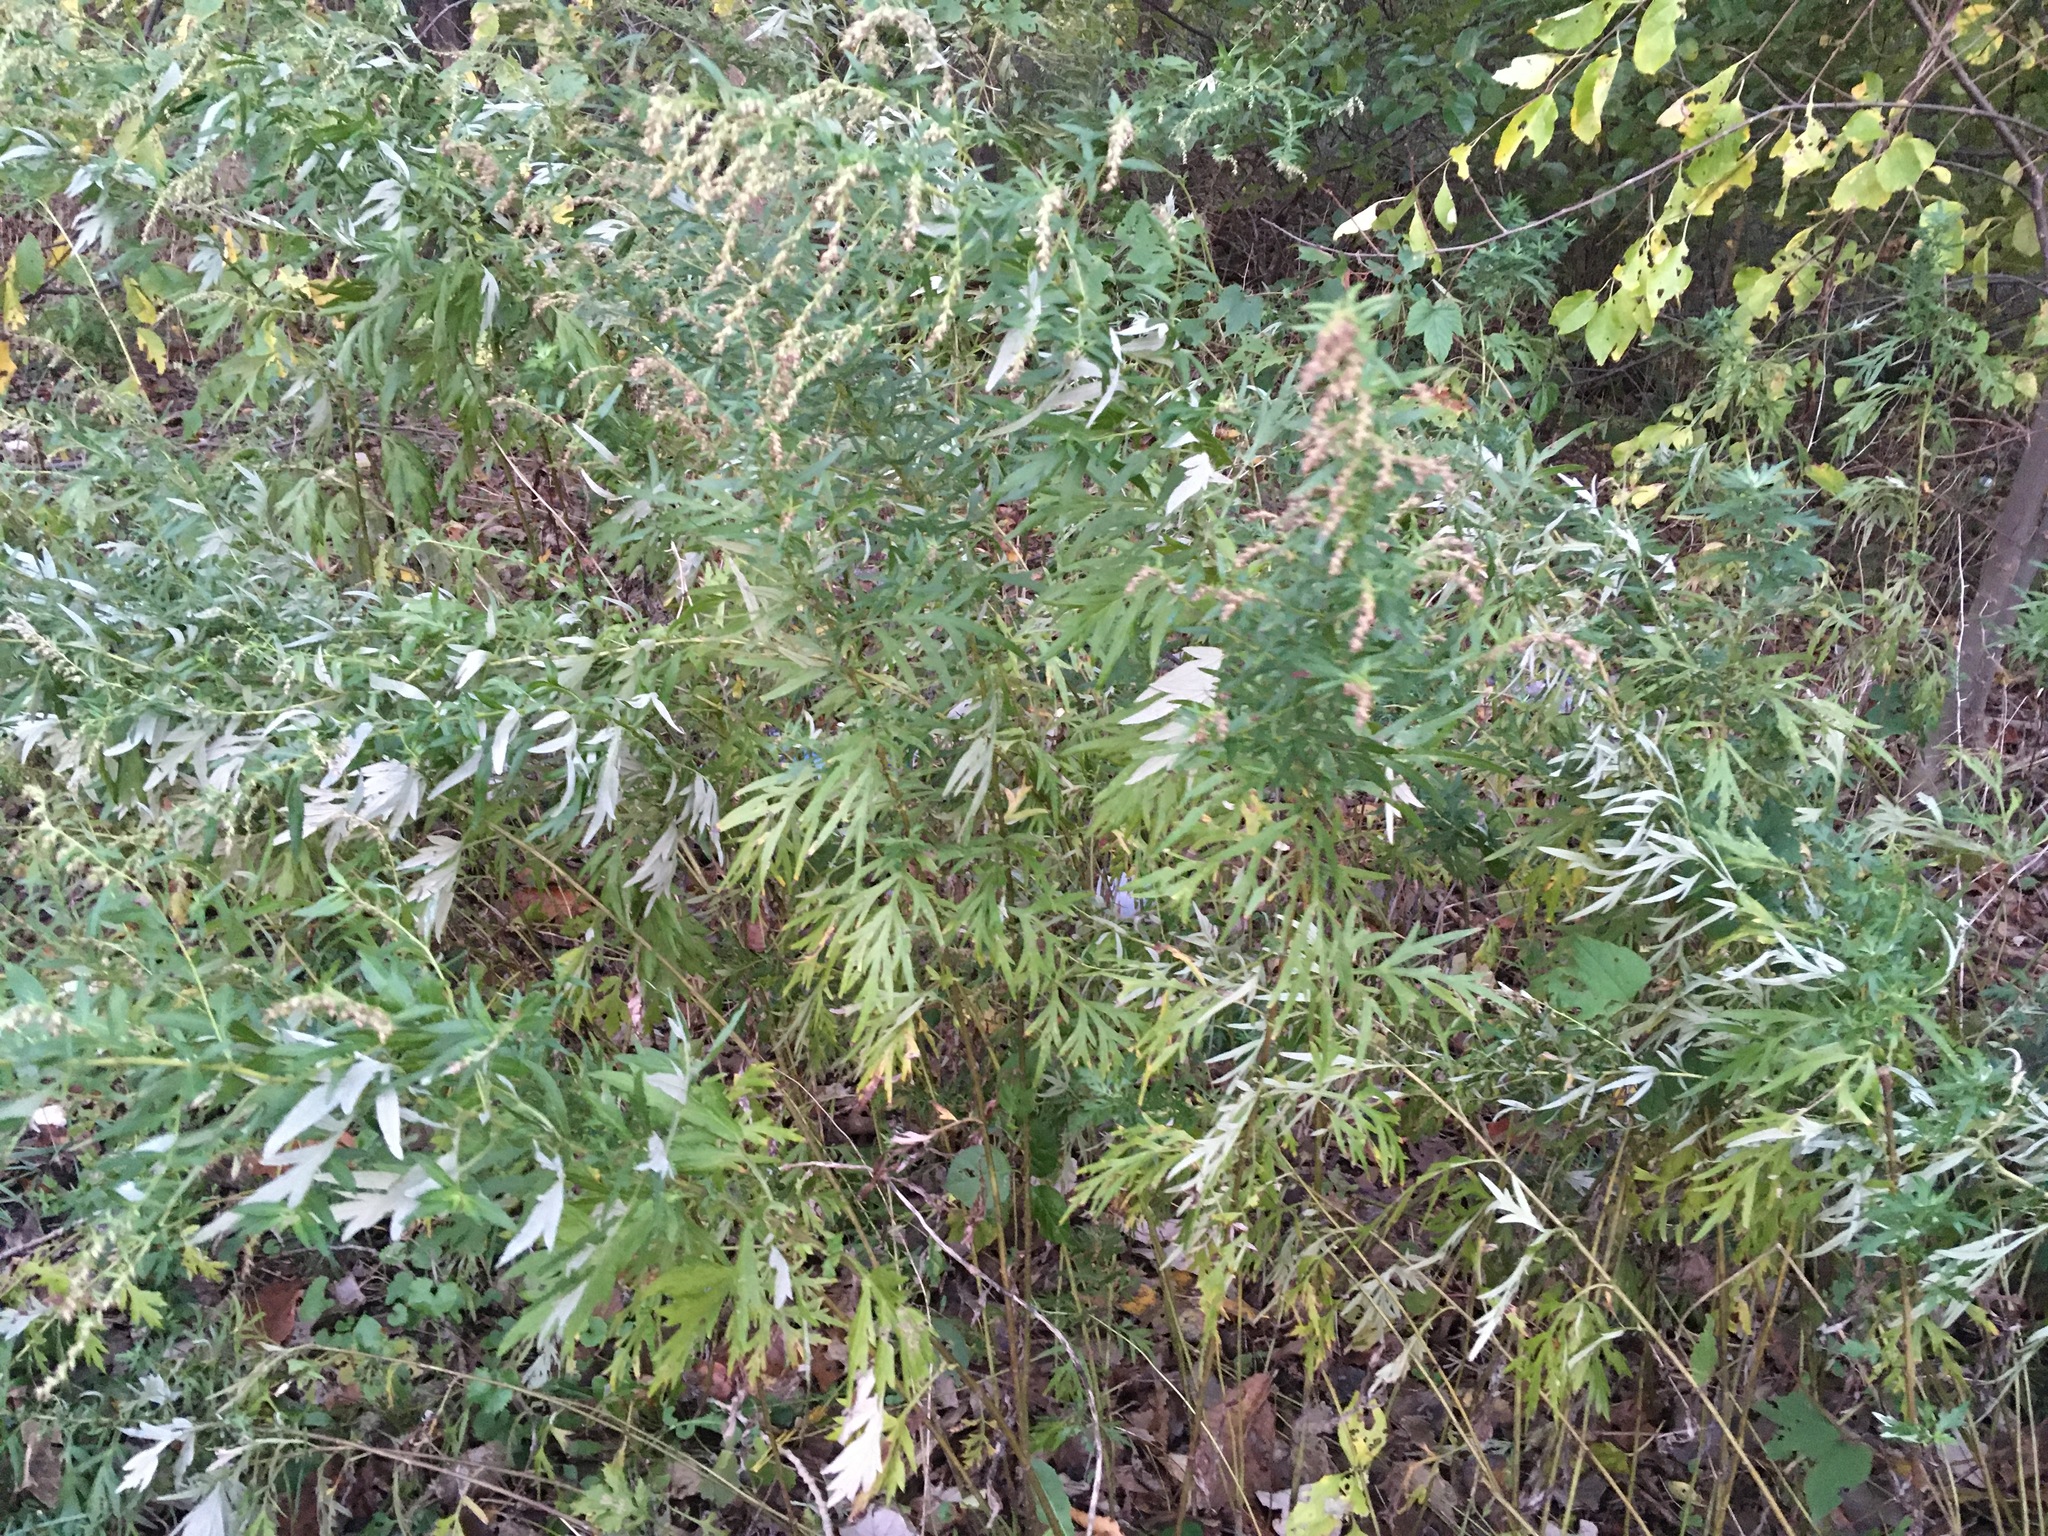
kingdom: Plantae
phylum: Tracheophyta
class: Magnoliopsida
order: Asterales
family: Asteraceae
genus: Artemisia
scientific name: Artemisia vulgaris
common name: Mugwort
